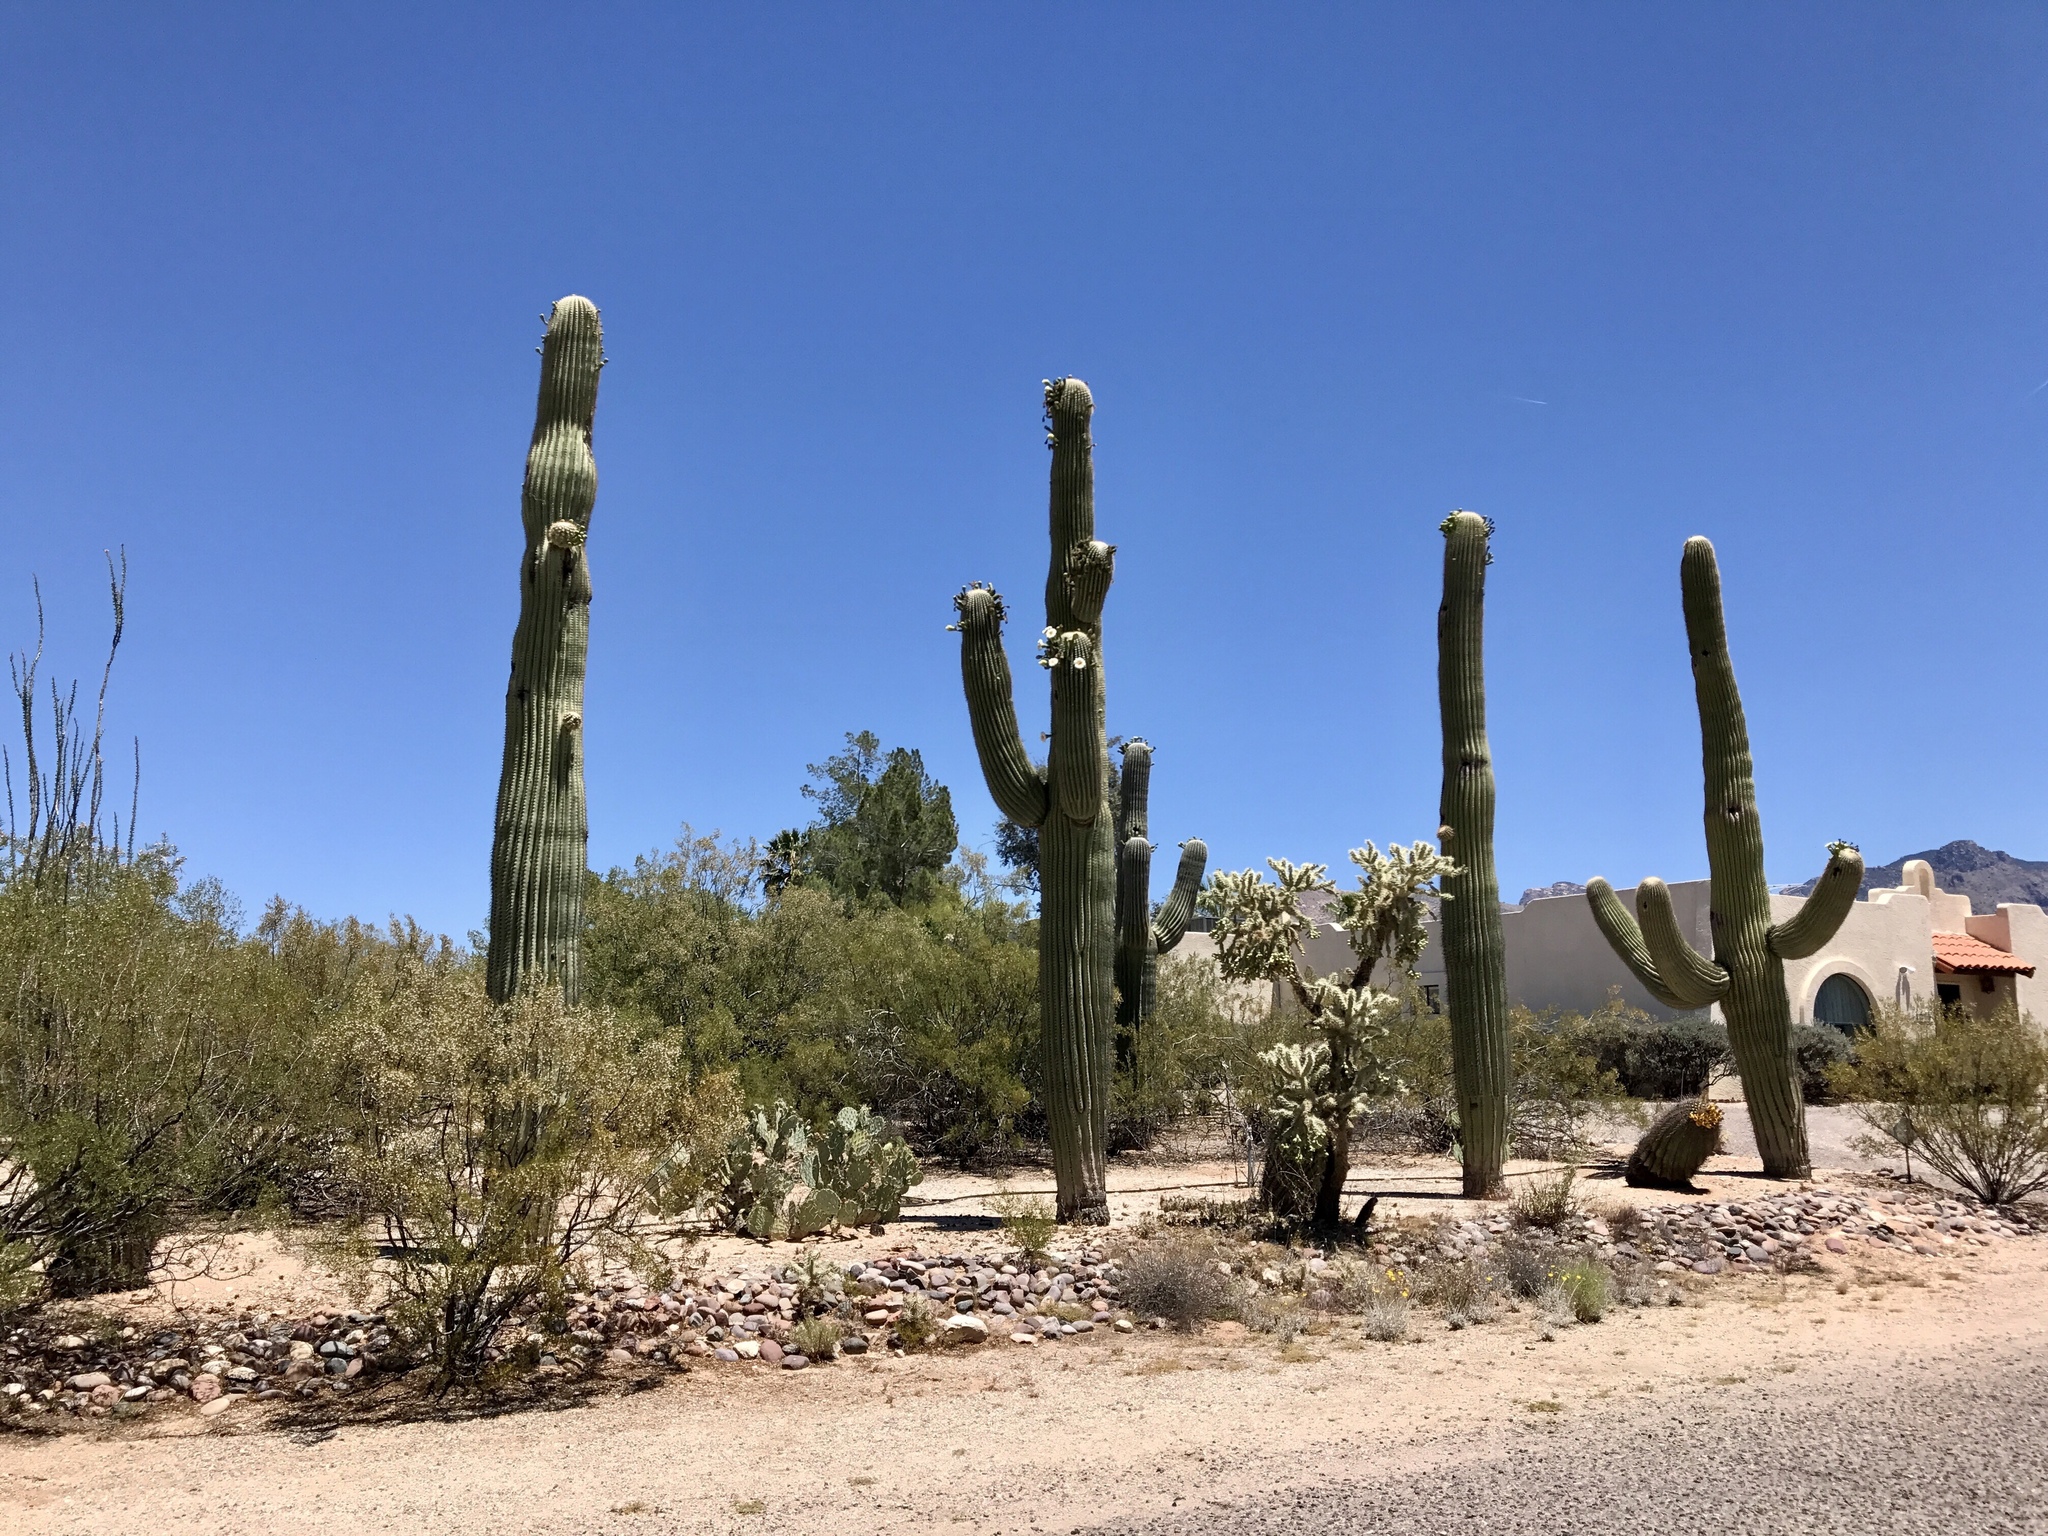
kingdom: Plantae
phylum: Tracheophyta
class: Magnoliopsida
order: Caryophyllales
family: Cactaceae
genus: Carnegiea
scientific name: Carnegiea gigantea
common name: Saguaro
